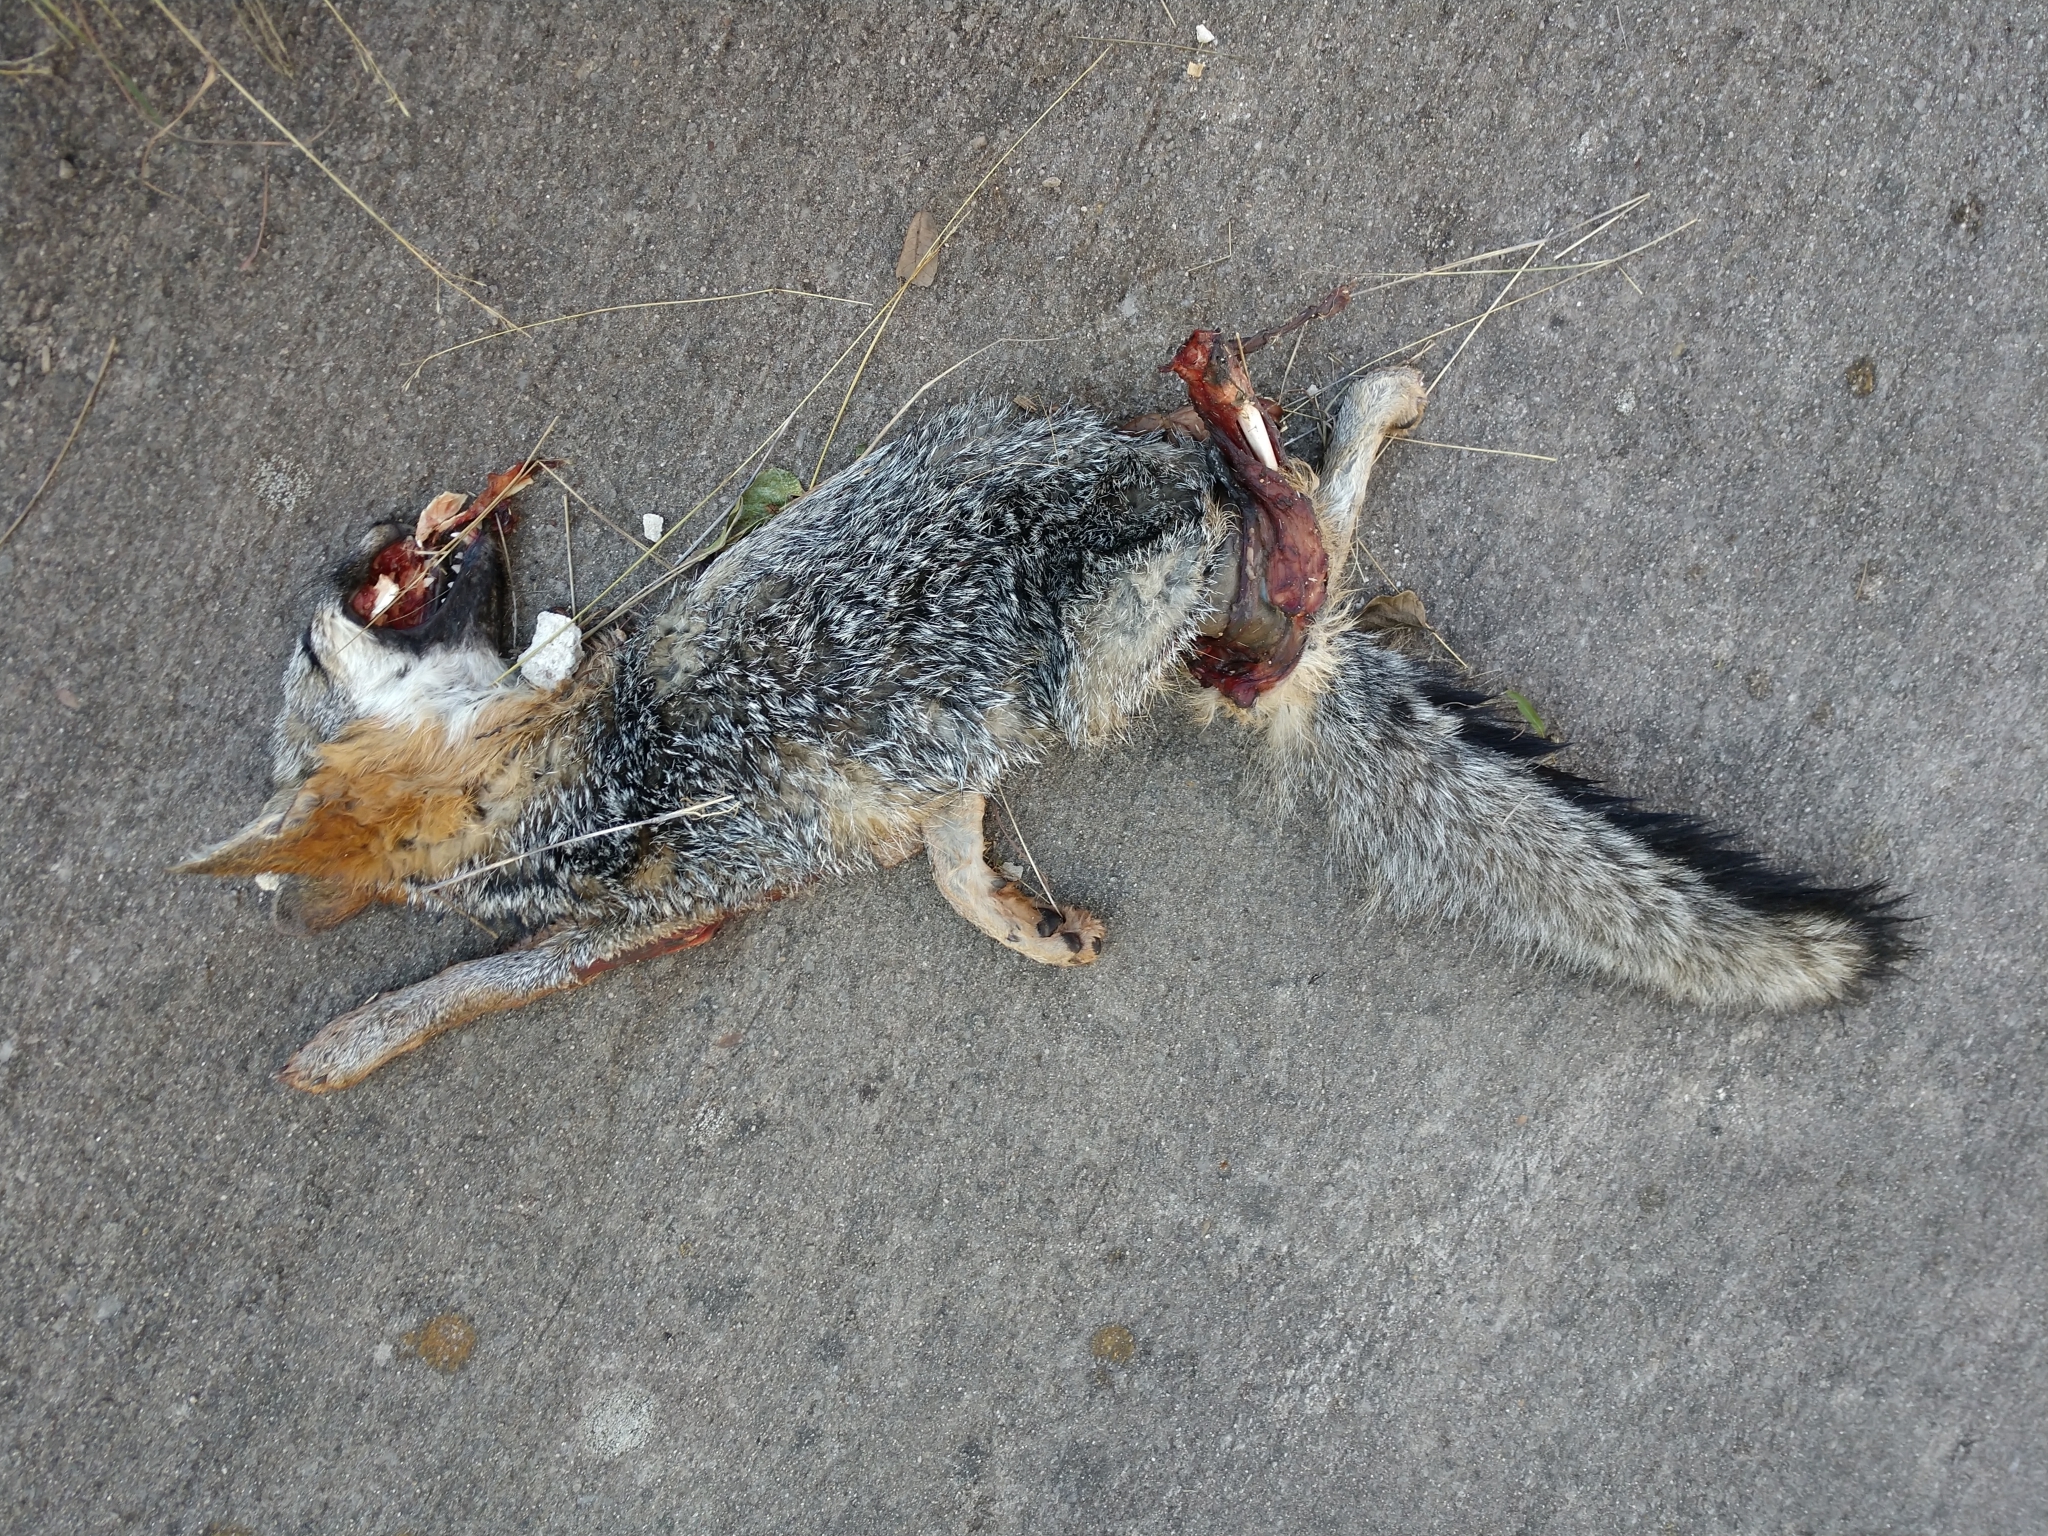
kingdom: Animalia
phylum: Chordata
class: Mammalia
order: Carnivora
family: Canidae
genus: Urocyon
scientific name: Urocyon cinereoargenteus
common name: Gray fox
